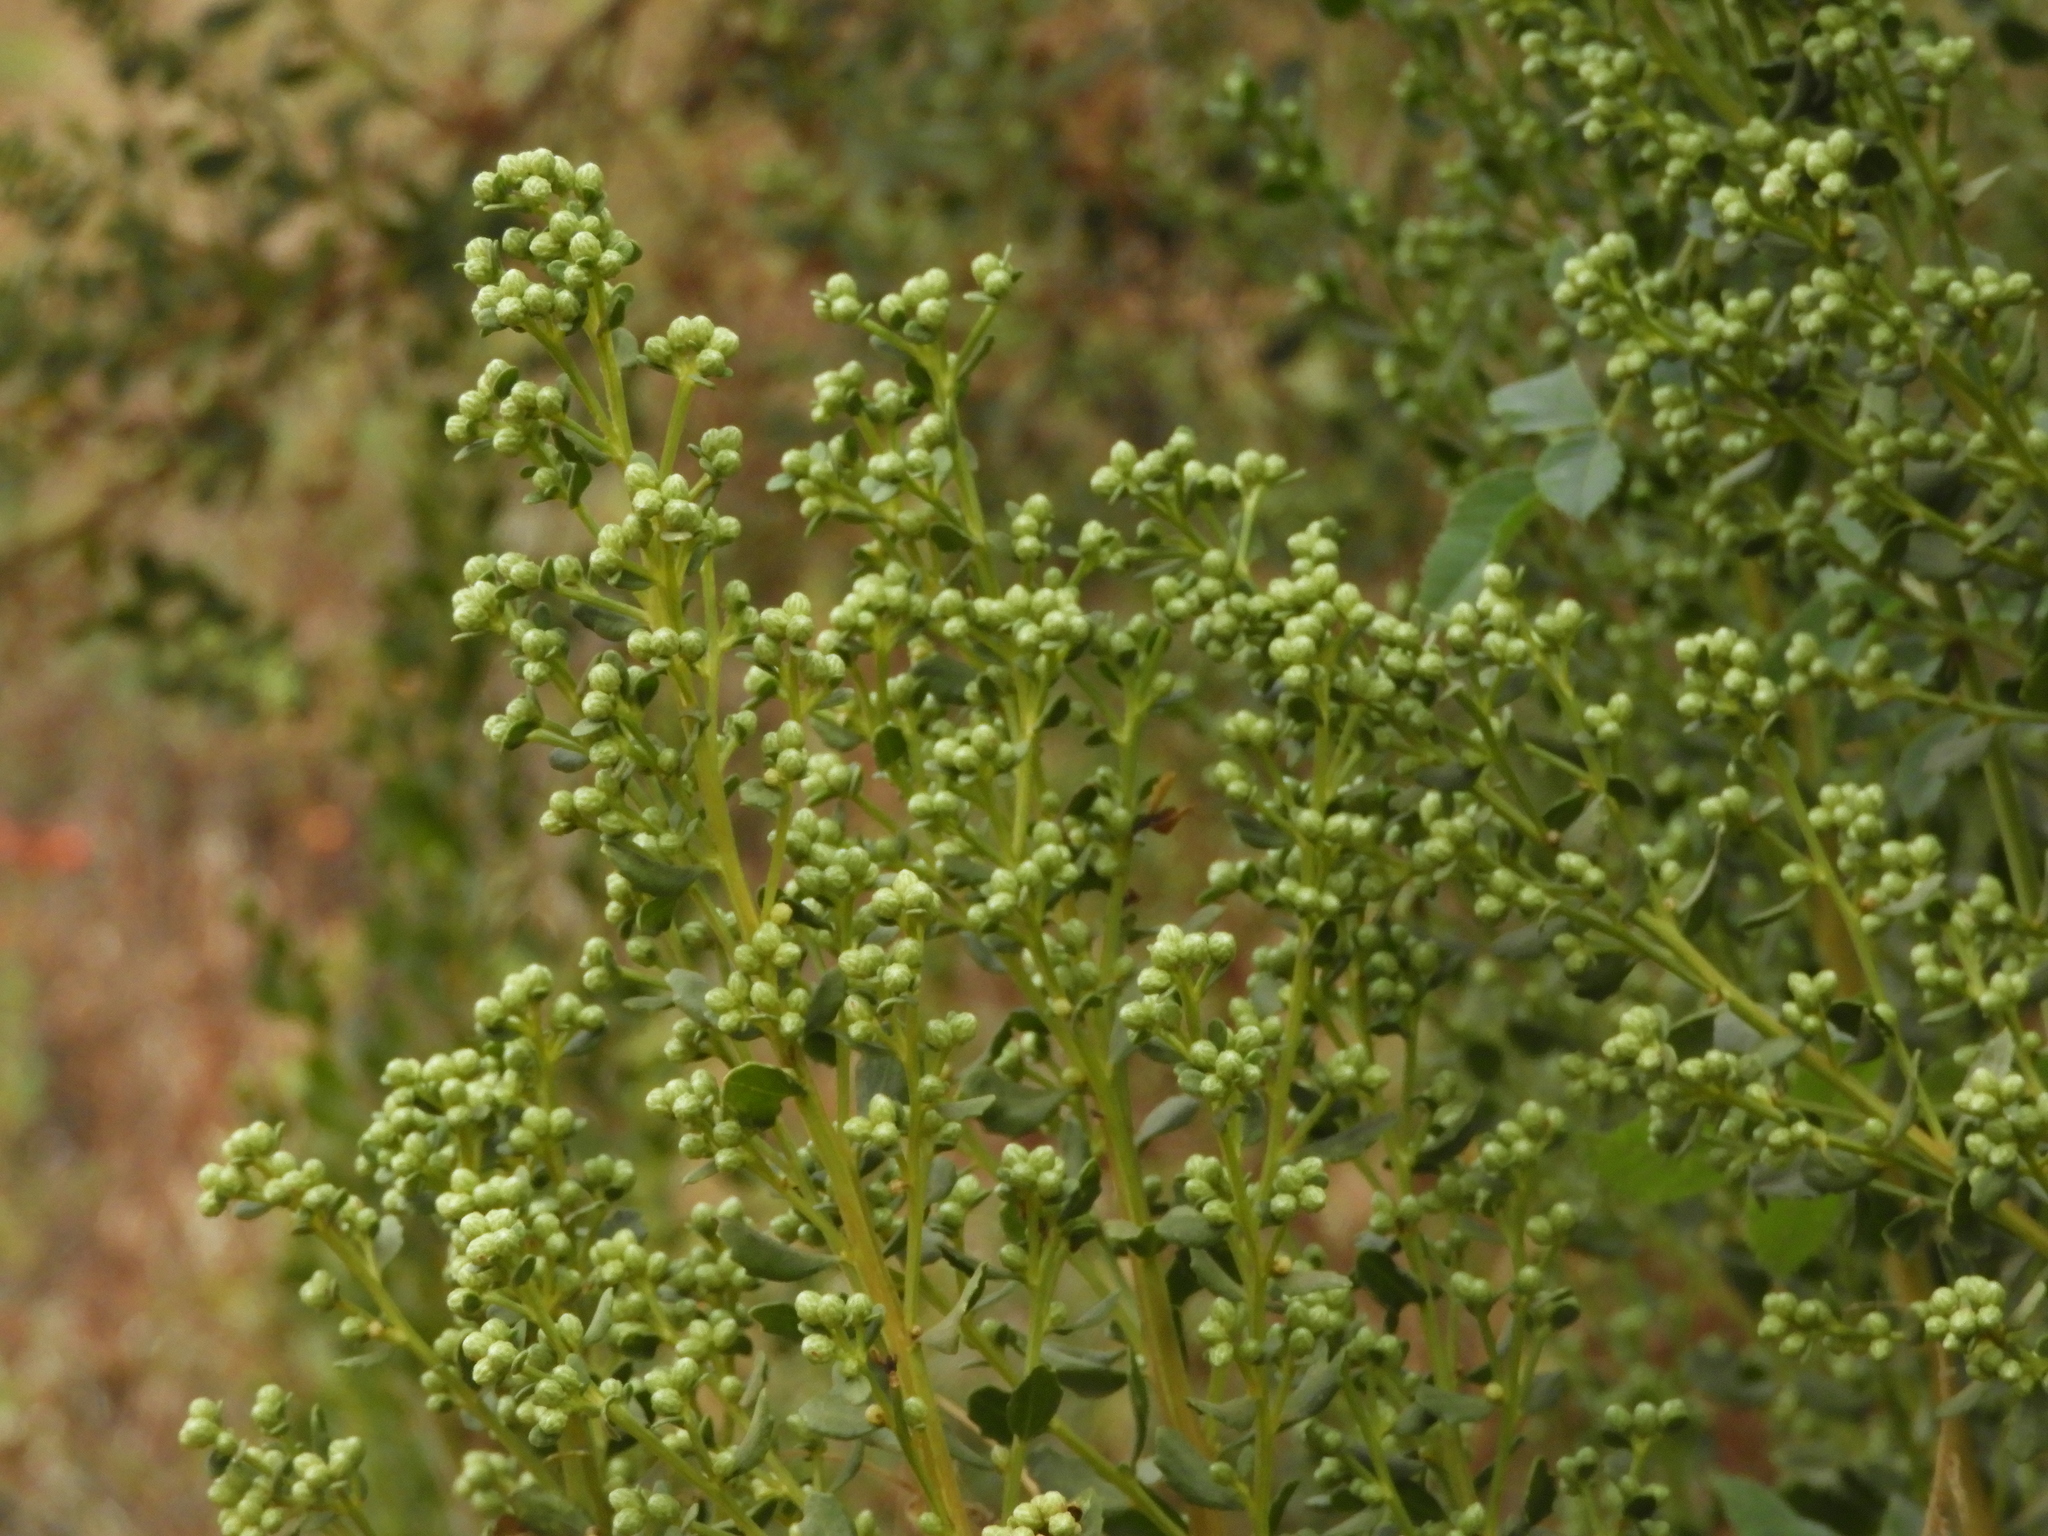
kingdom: Plantae
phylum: Tracheophyta
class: Magnoliopsida
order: Asterales
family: Asteraceae
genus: Baccharis
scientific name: Baccharis pilularis
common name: Coyotebrush
